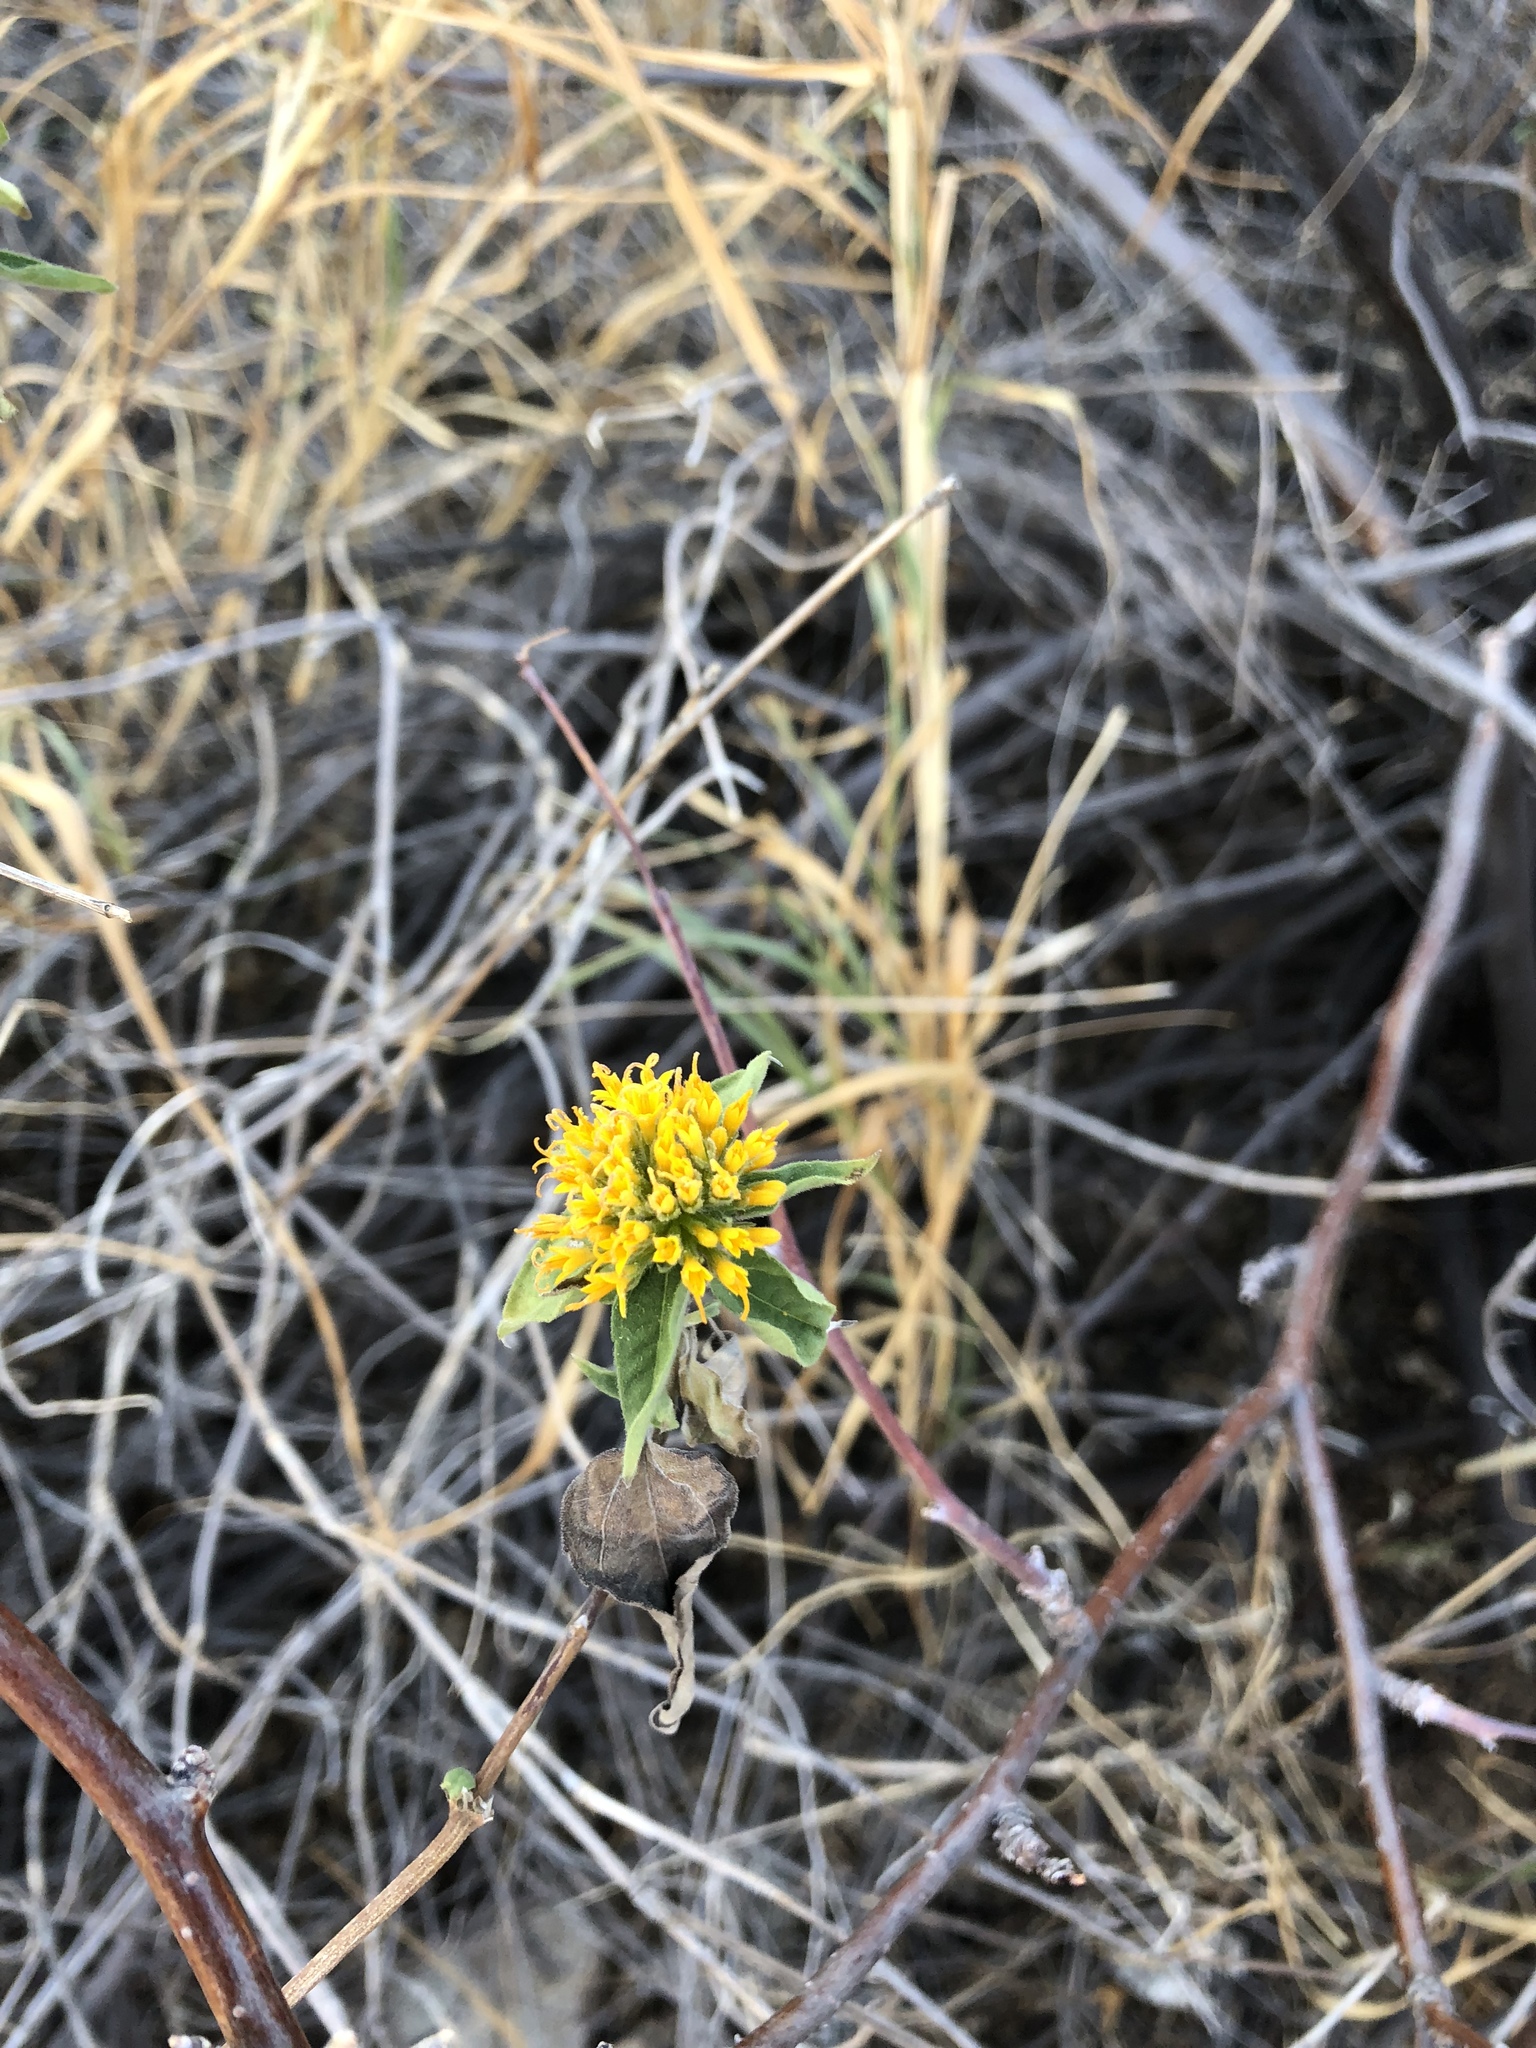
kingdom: Plantae
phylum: Tracheophyta
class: Magnoliopsida
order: Asterales
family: Asteraceae
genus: Lagascea
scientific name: Lagascea decipiens
